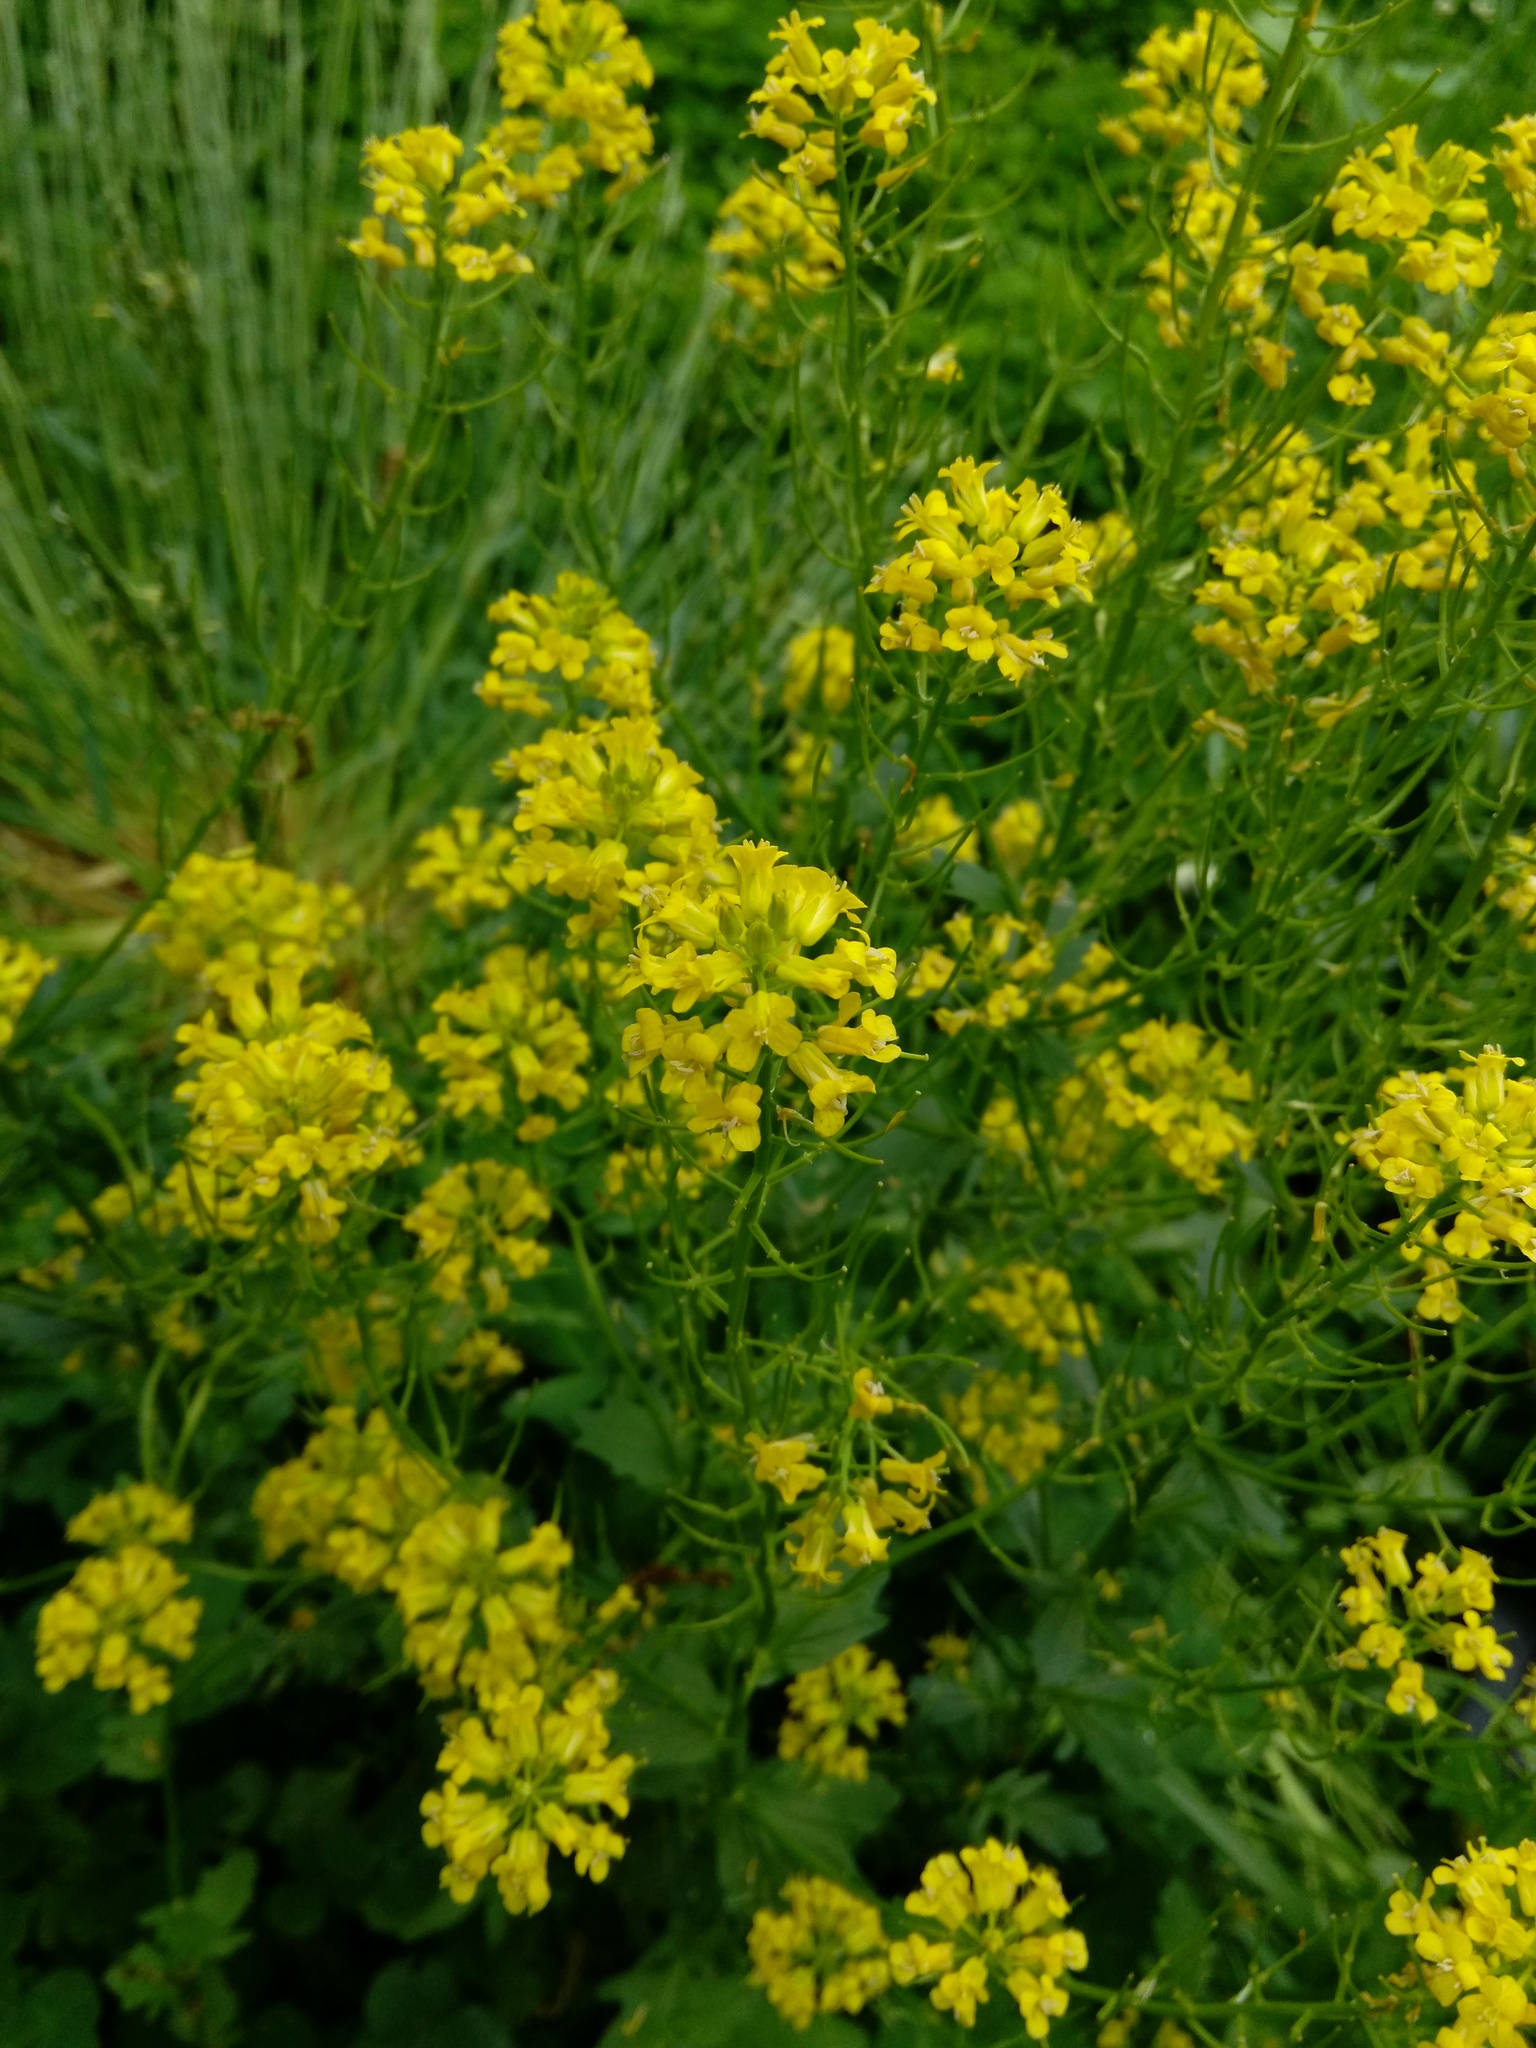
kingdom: Plantae
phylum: Tracheophyta
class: Magnoliopsida
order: Brassicales
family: Brassicaceae
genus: Barbarea
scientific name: Barbarea vulgaris
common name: Cressy-greens
